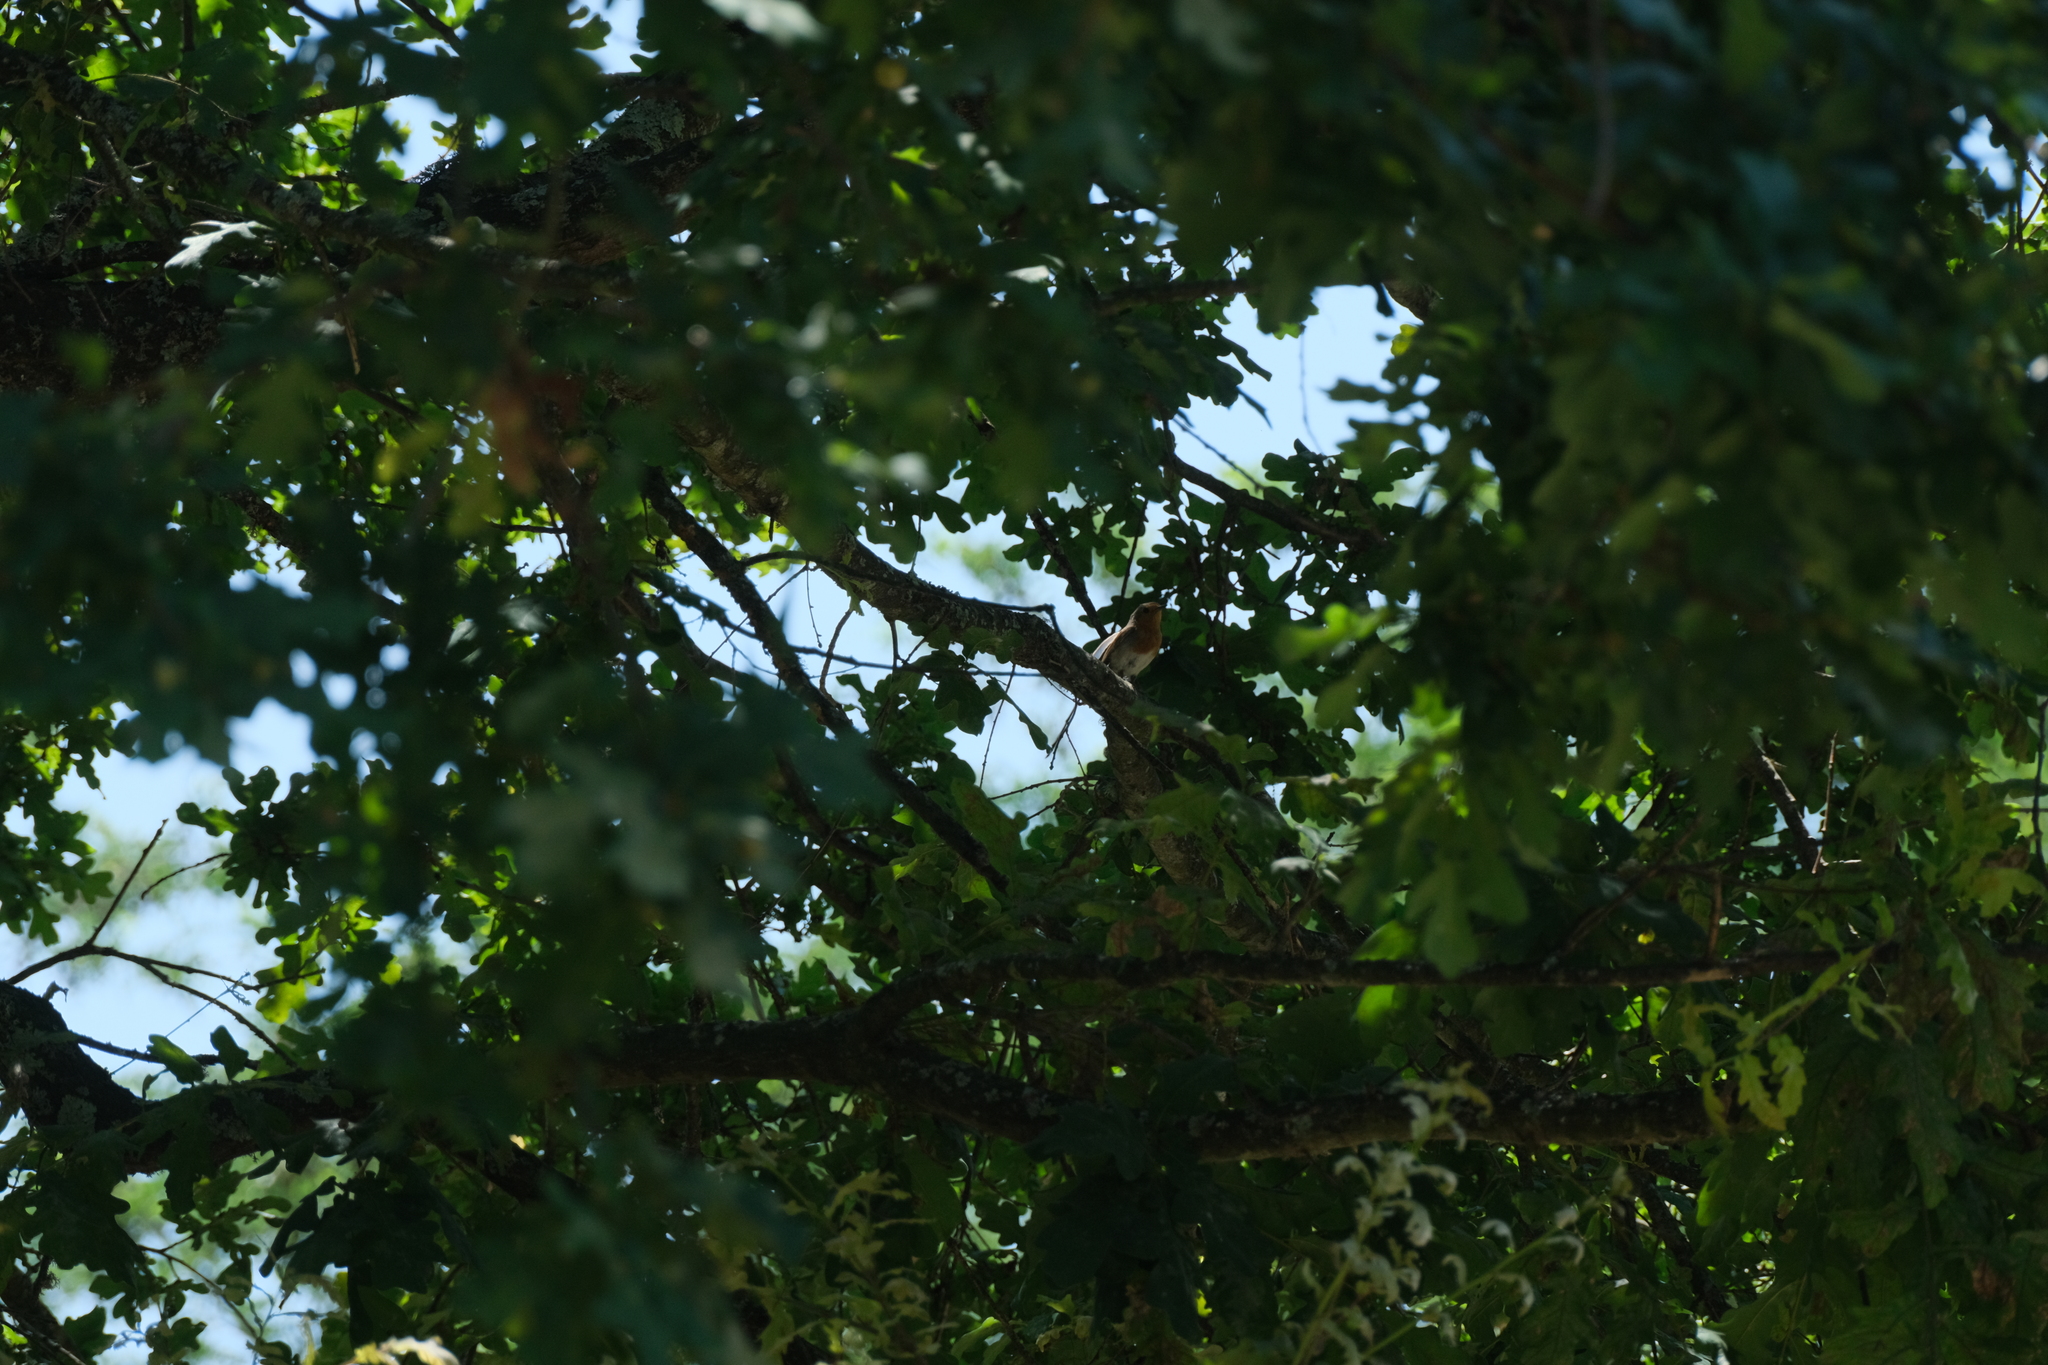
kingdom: Animalia
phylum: Chordata
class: Aves
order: Passeriformes
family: Muscicapidae
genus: Erithacus
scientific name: Erithacus rubecula
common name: European robin
